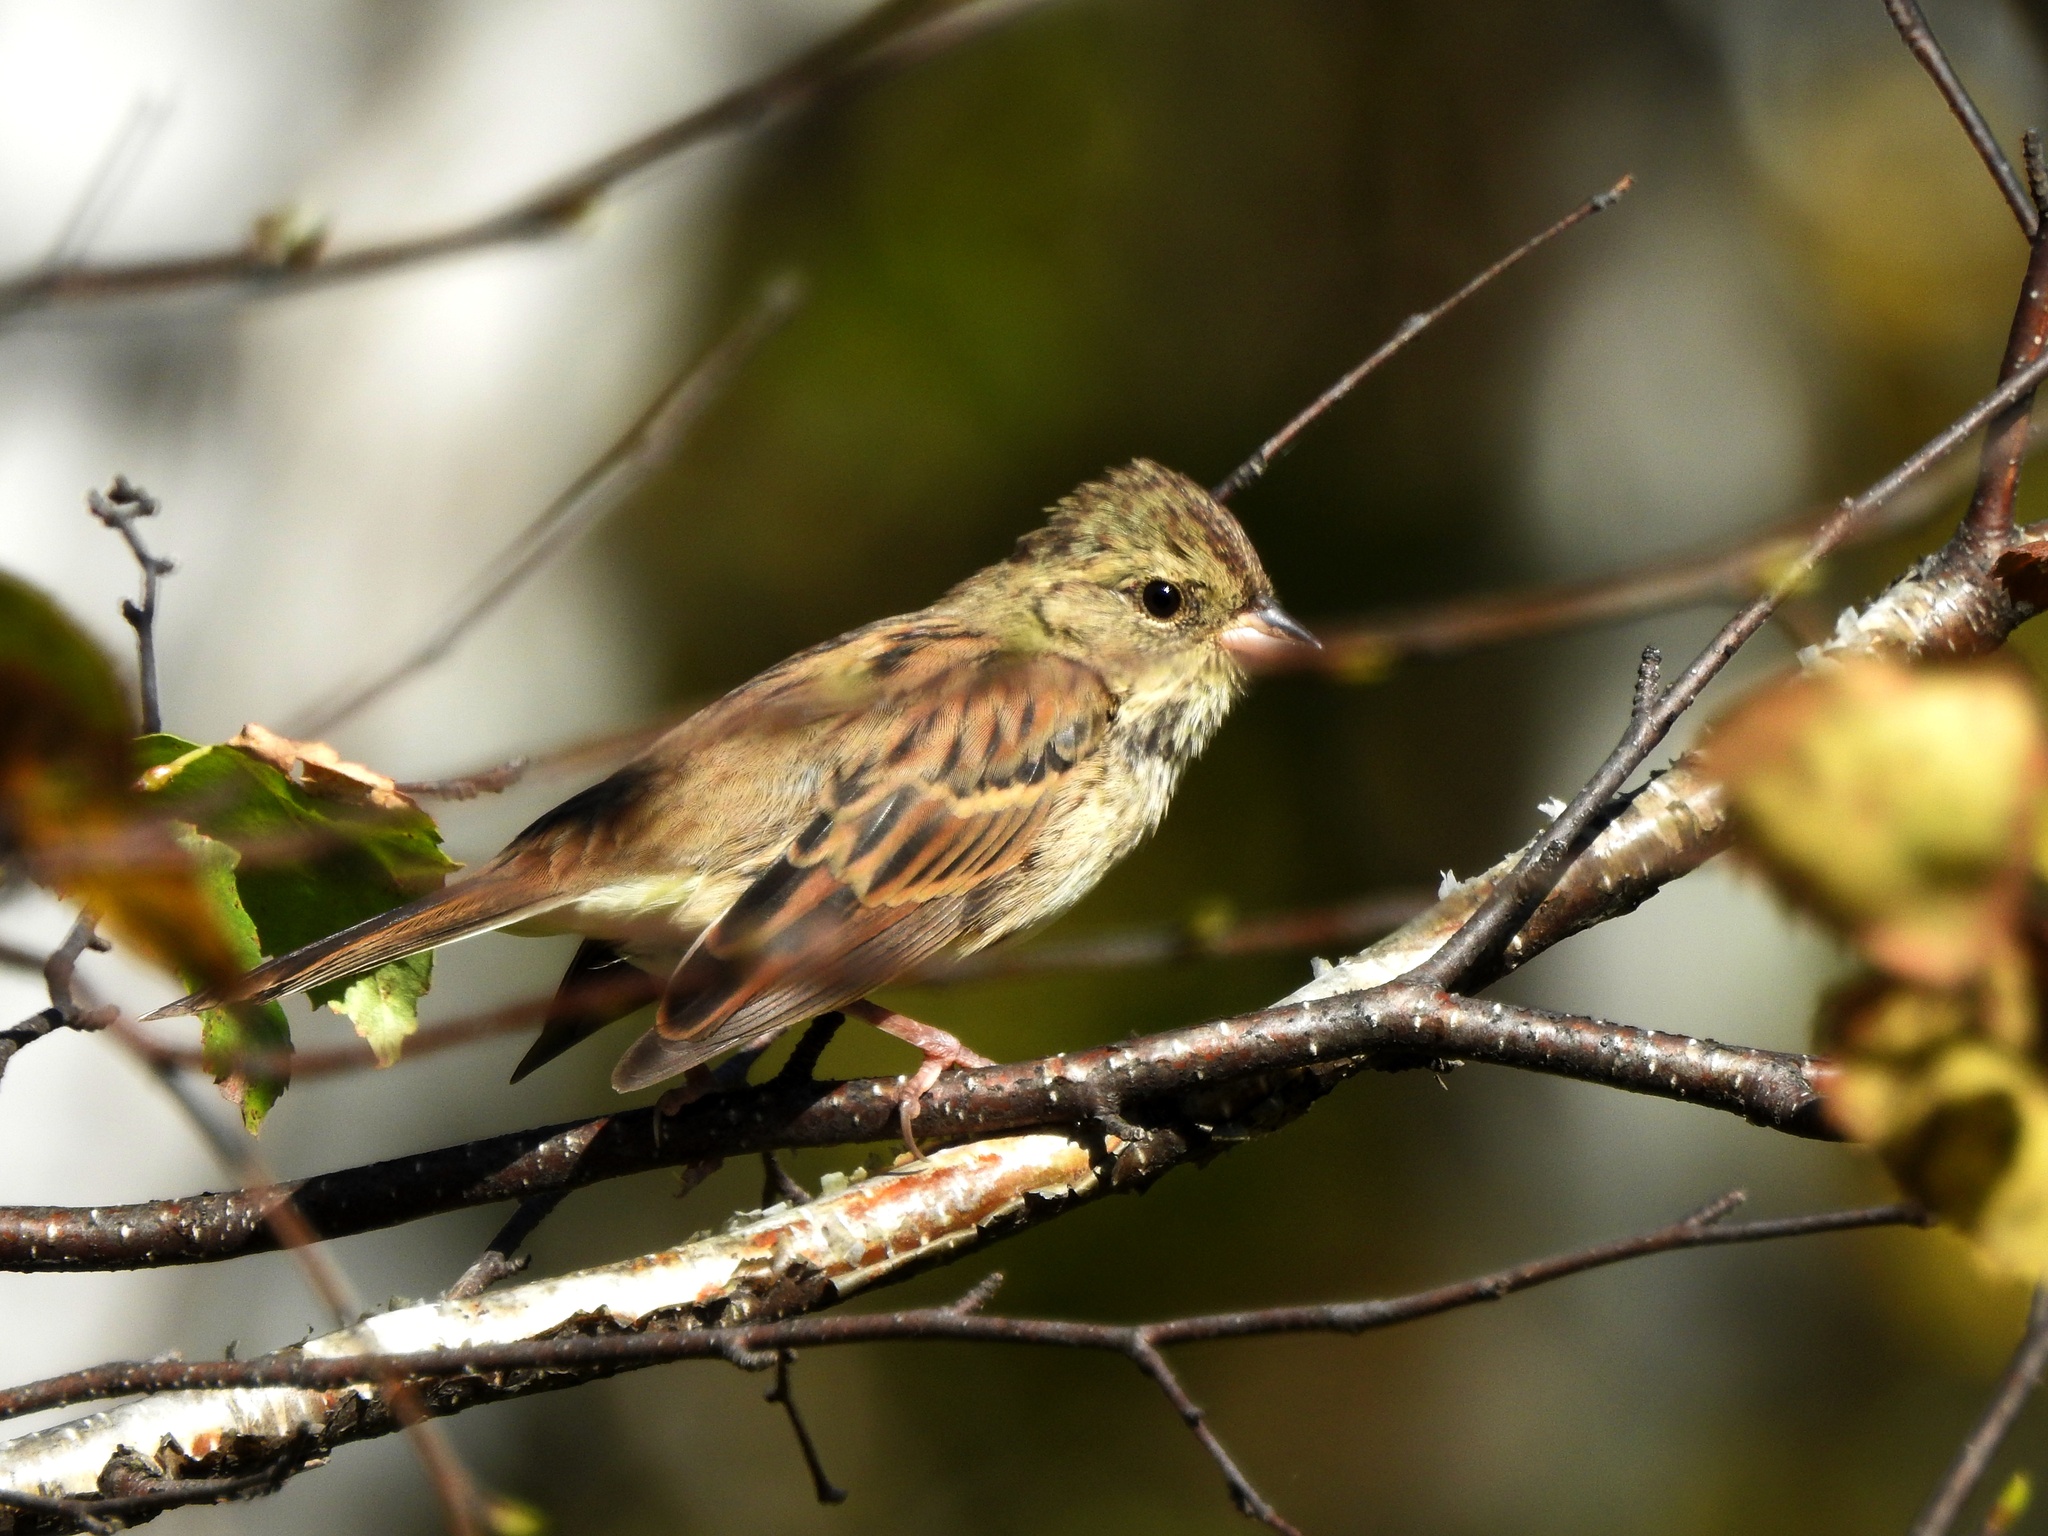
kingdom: Animalia
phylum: Chordata
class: Aves
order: Passeriformes
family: Emberizidae
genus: Emberiza
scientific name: Emberiza spodocephala
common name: Black-faced bunting
